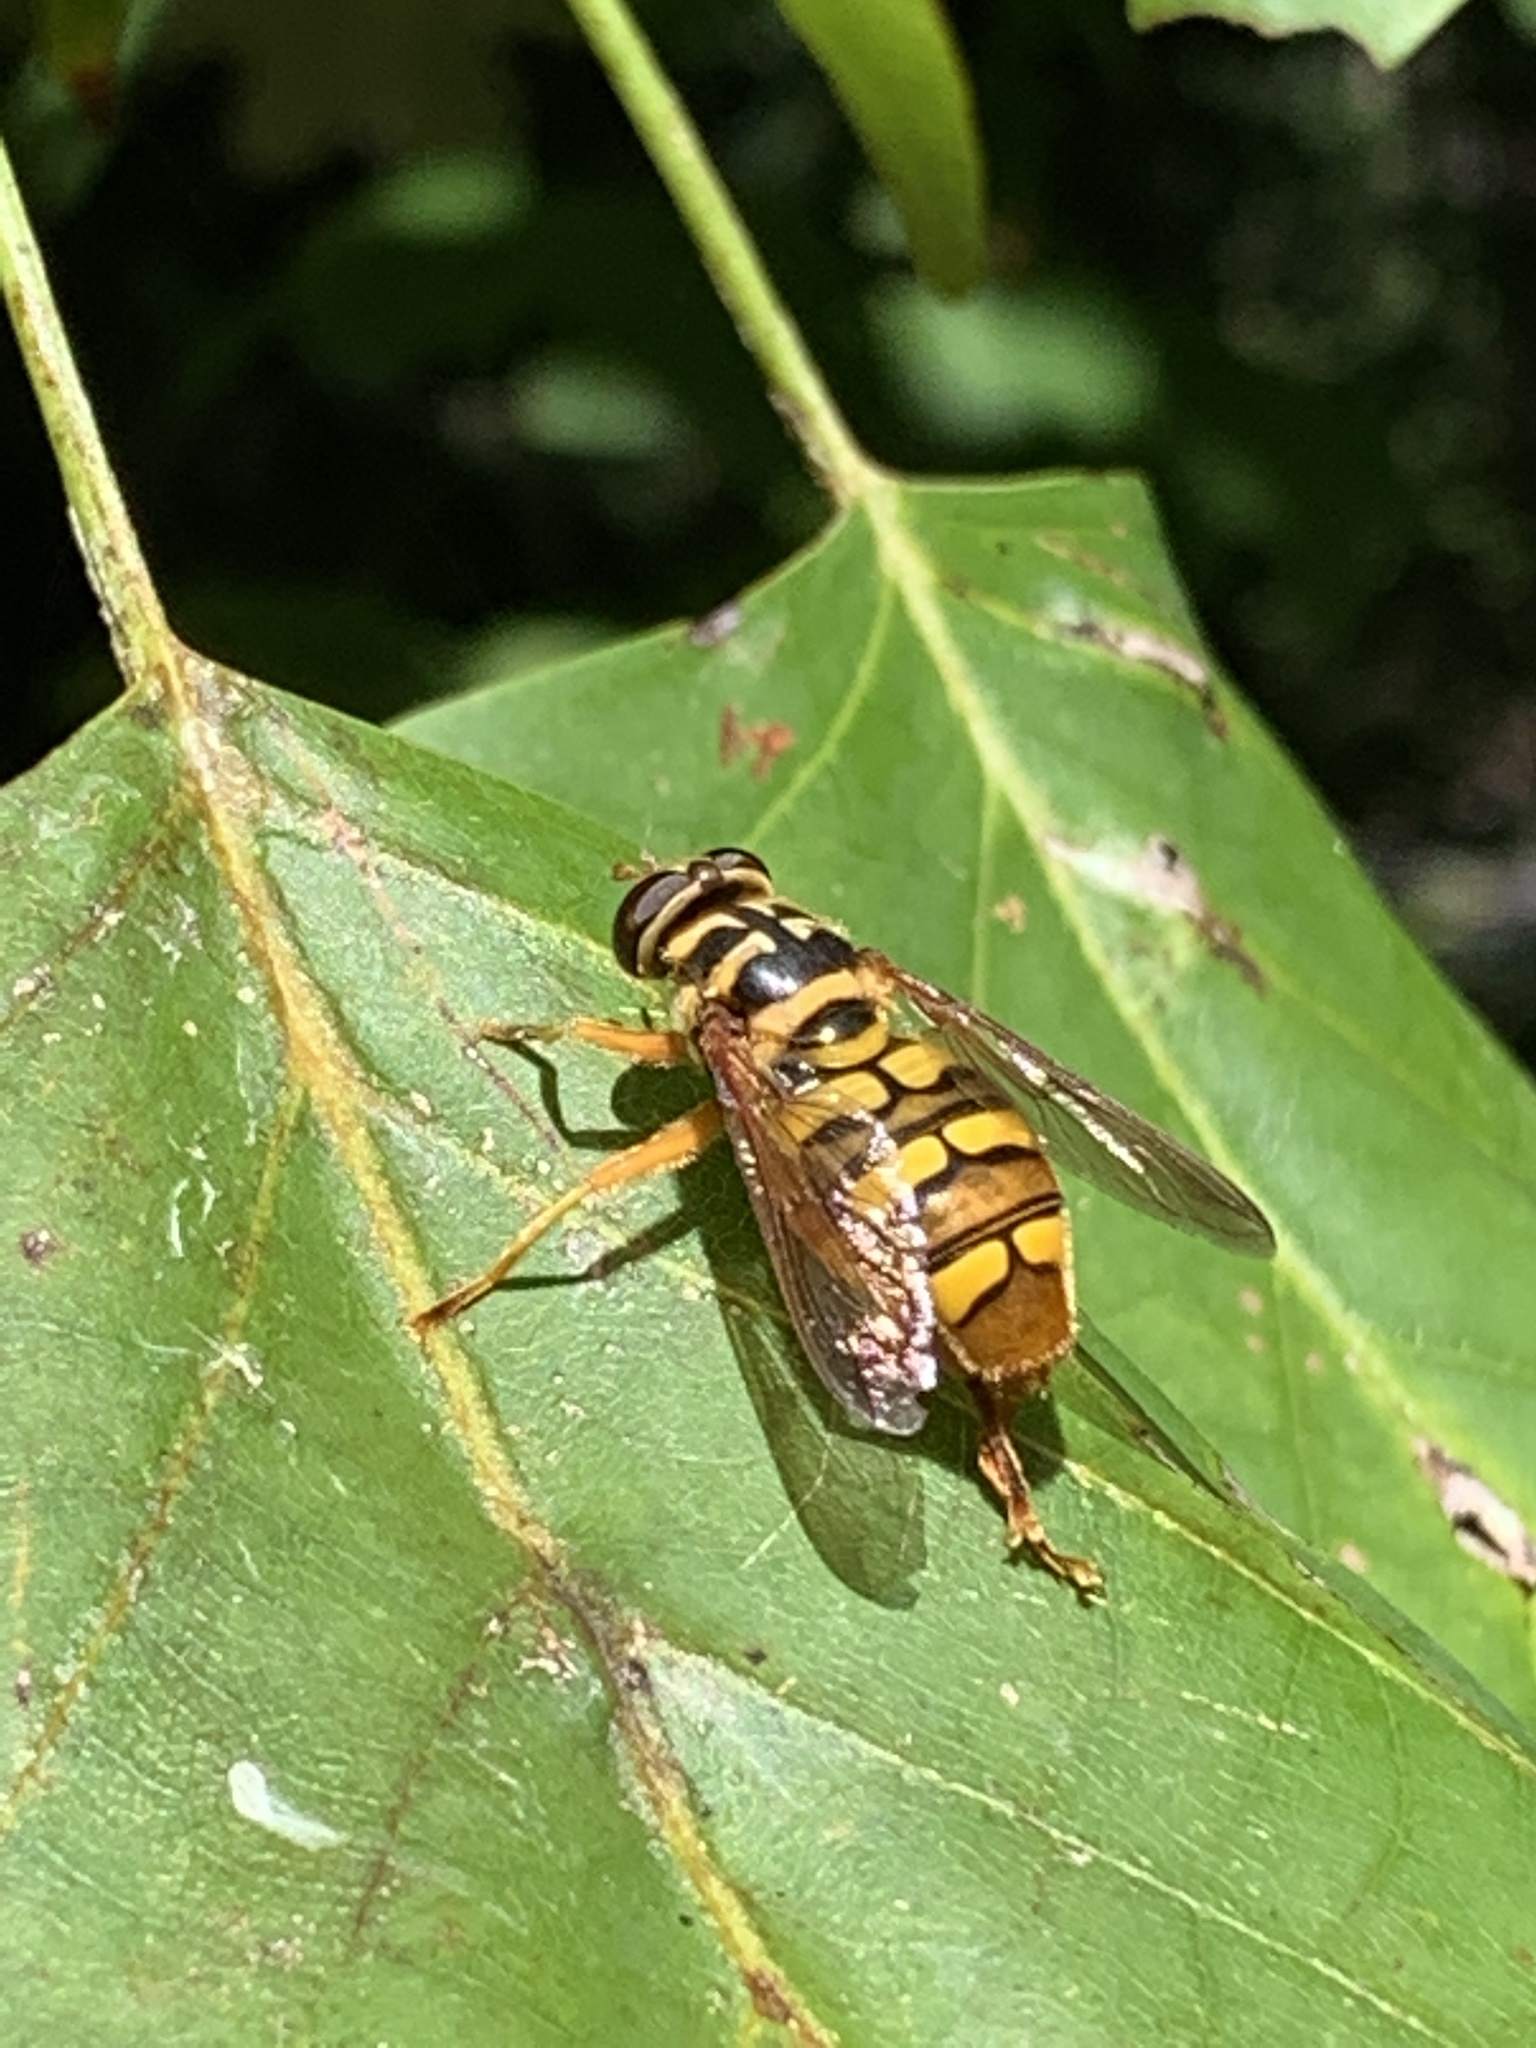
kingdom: Animalia
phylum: Arthropoda
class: Insecta
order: Diptera
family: Syrphidae
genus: Milesia
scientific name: Milesia virginiensis
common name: Virginia giant
